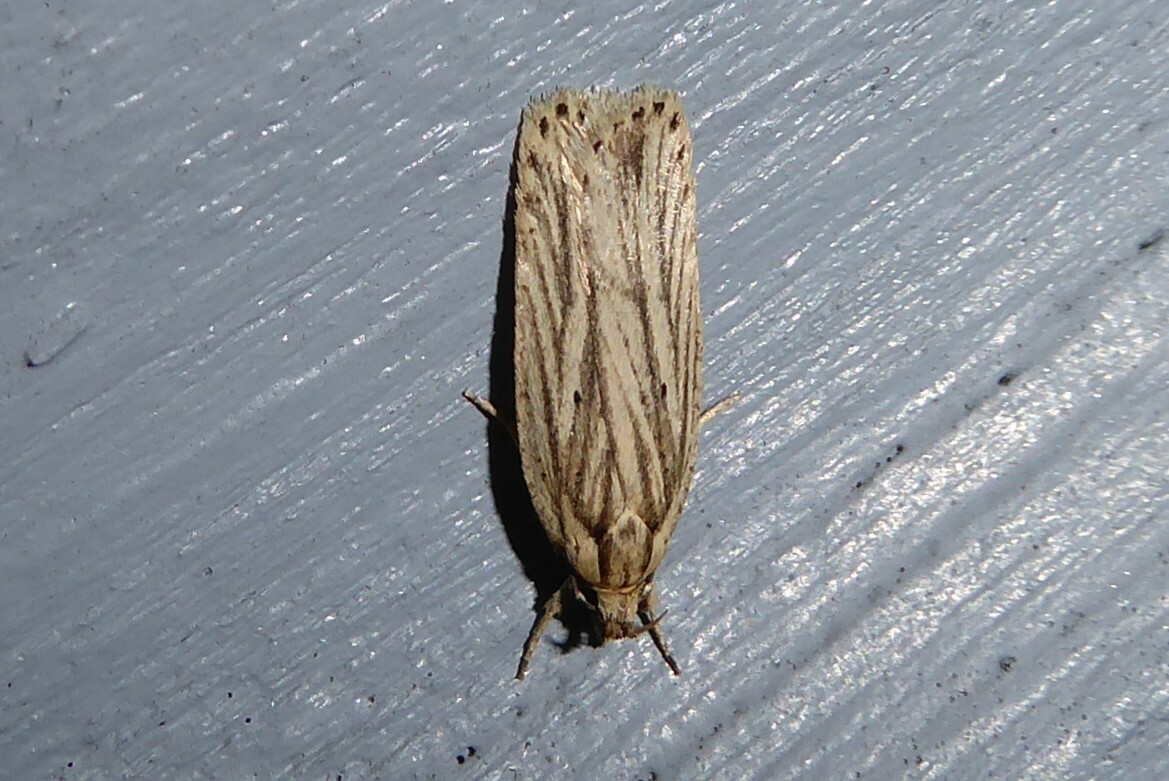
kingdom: Animalia
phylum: Arthropoda
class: Insecta
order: Lepidoptera
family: Depressariidae
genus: Agonopterix
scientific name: Agonopterix
